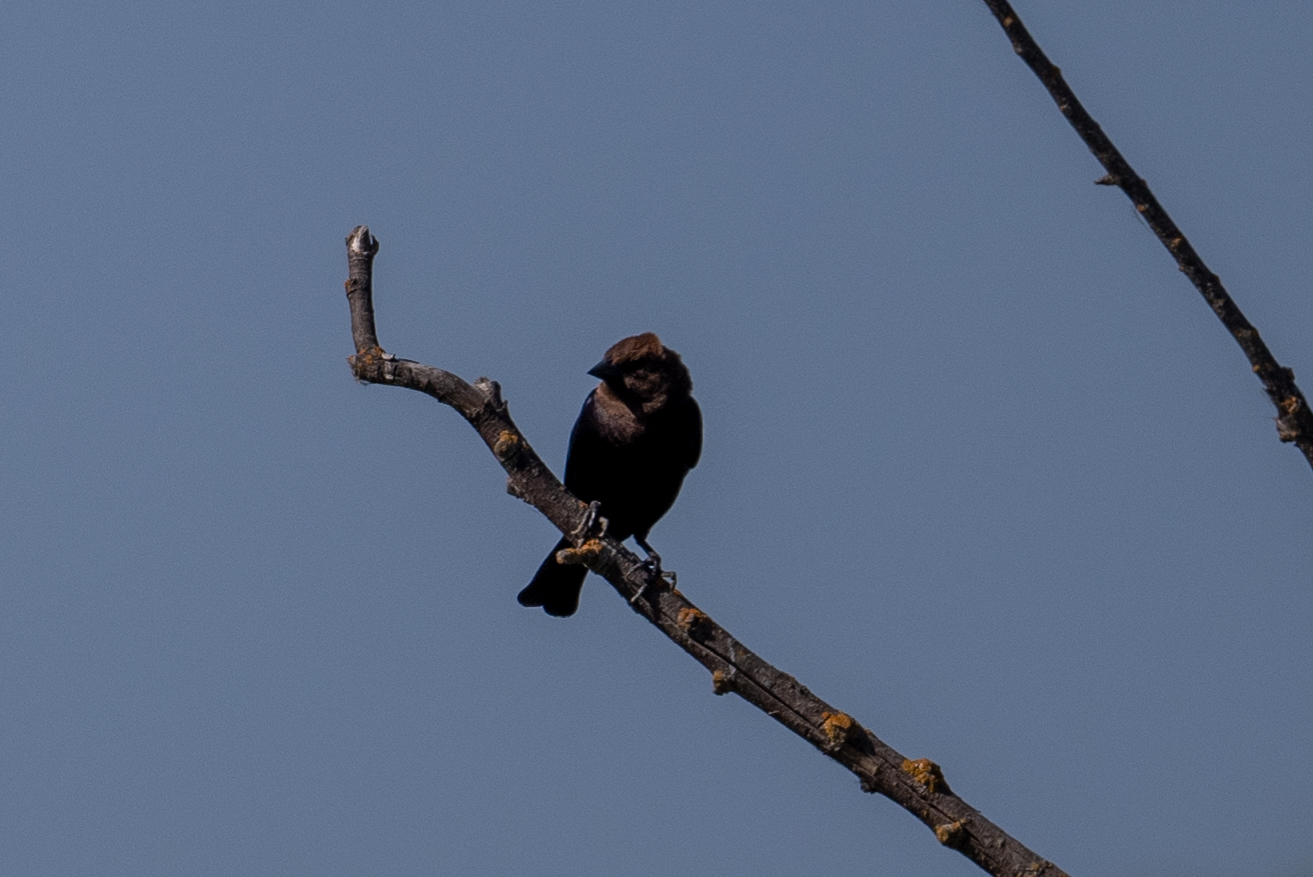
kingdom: Animalia
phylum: Chordata
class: Aves
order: Passeriformes
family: Icteridae
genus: Molothrus
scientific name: Molothrus ater
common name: Brown-headed cowbird
